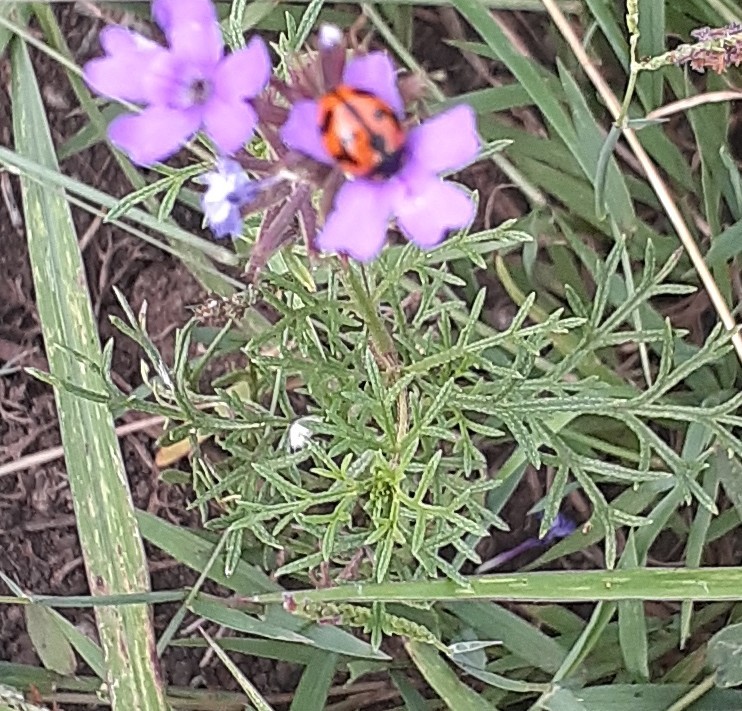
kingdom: Plantae
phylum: Tracheophyta
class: Magnoliopsida
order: Lamiales
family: Verbenaceae
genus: Verbena
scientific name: Verbena aristigera
